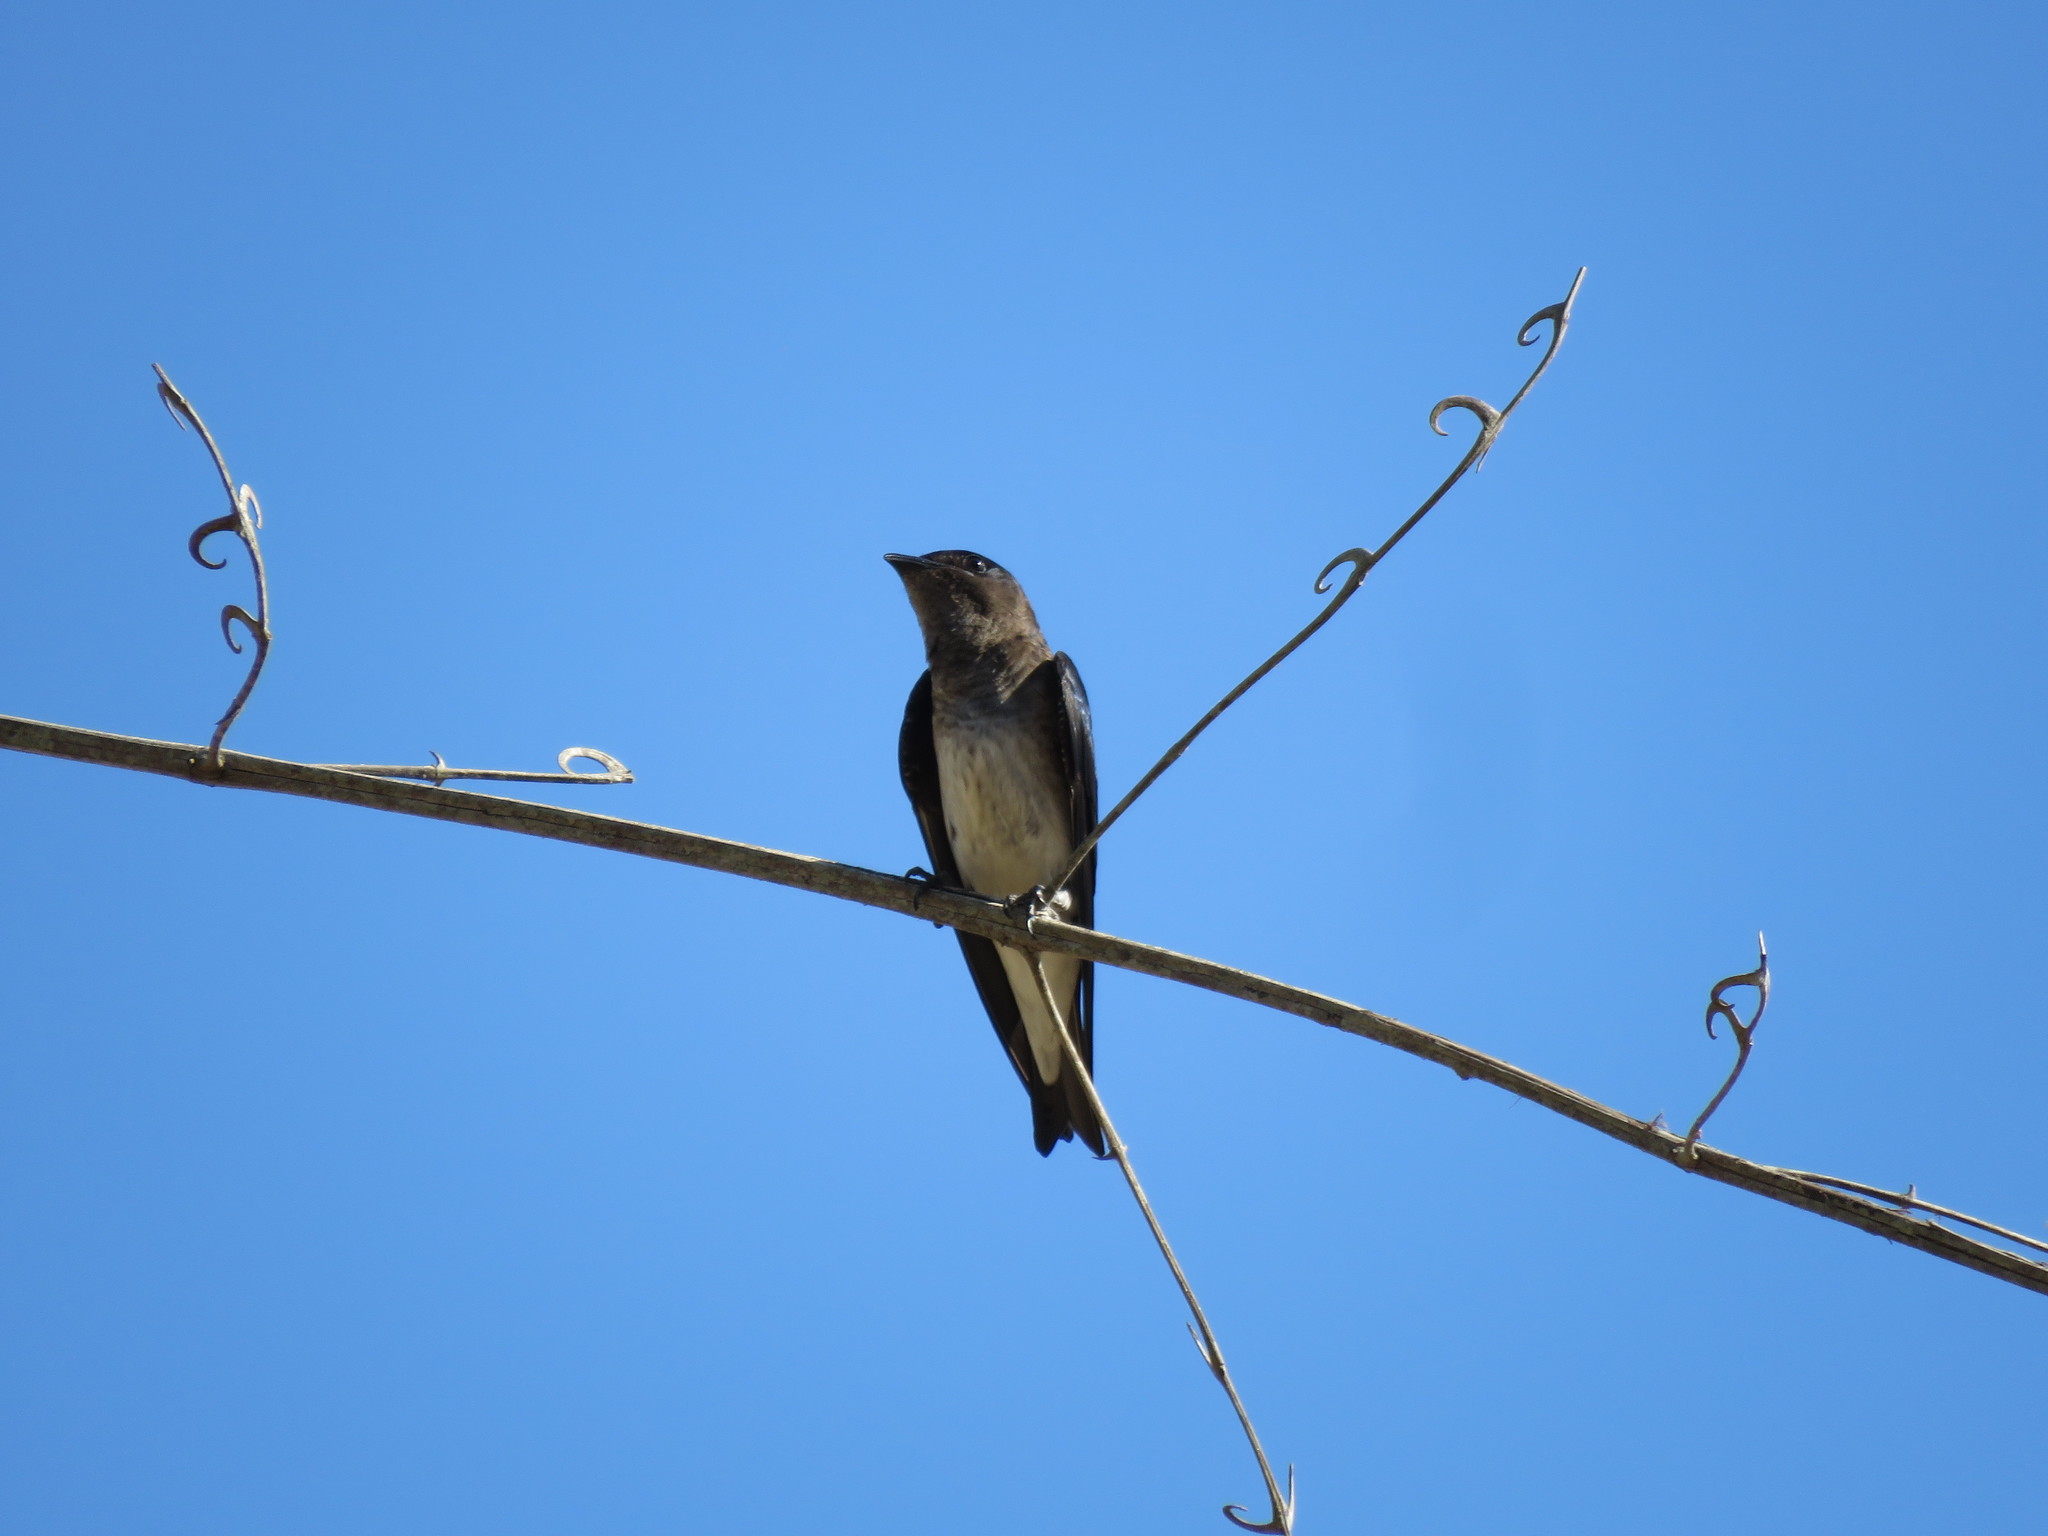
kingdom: Animalia
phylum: Chordata
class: Aves
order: Passeriformes
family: Hirundinidae
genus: Progne
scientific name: Progne chalybea
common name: Grey-breasted martin
